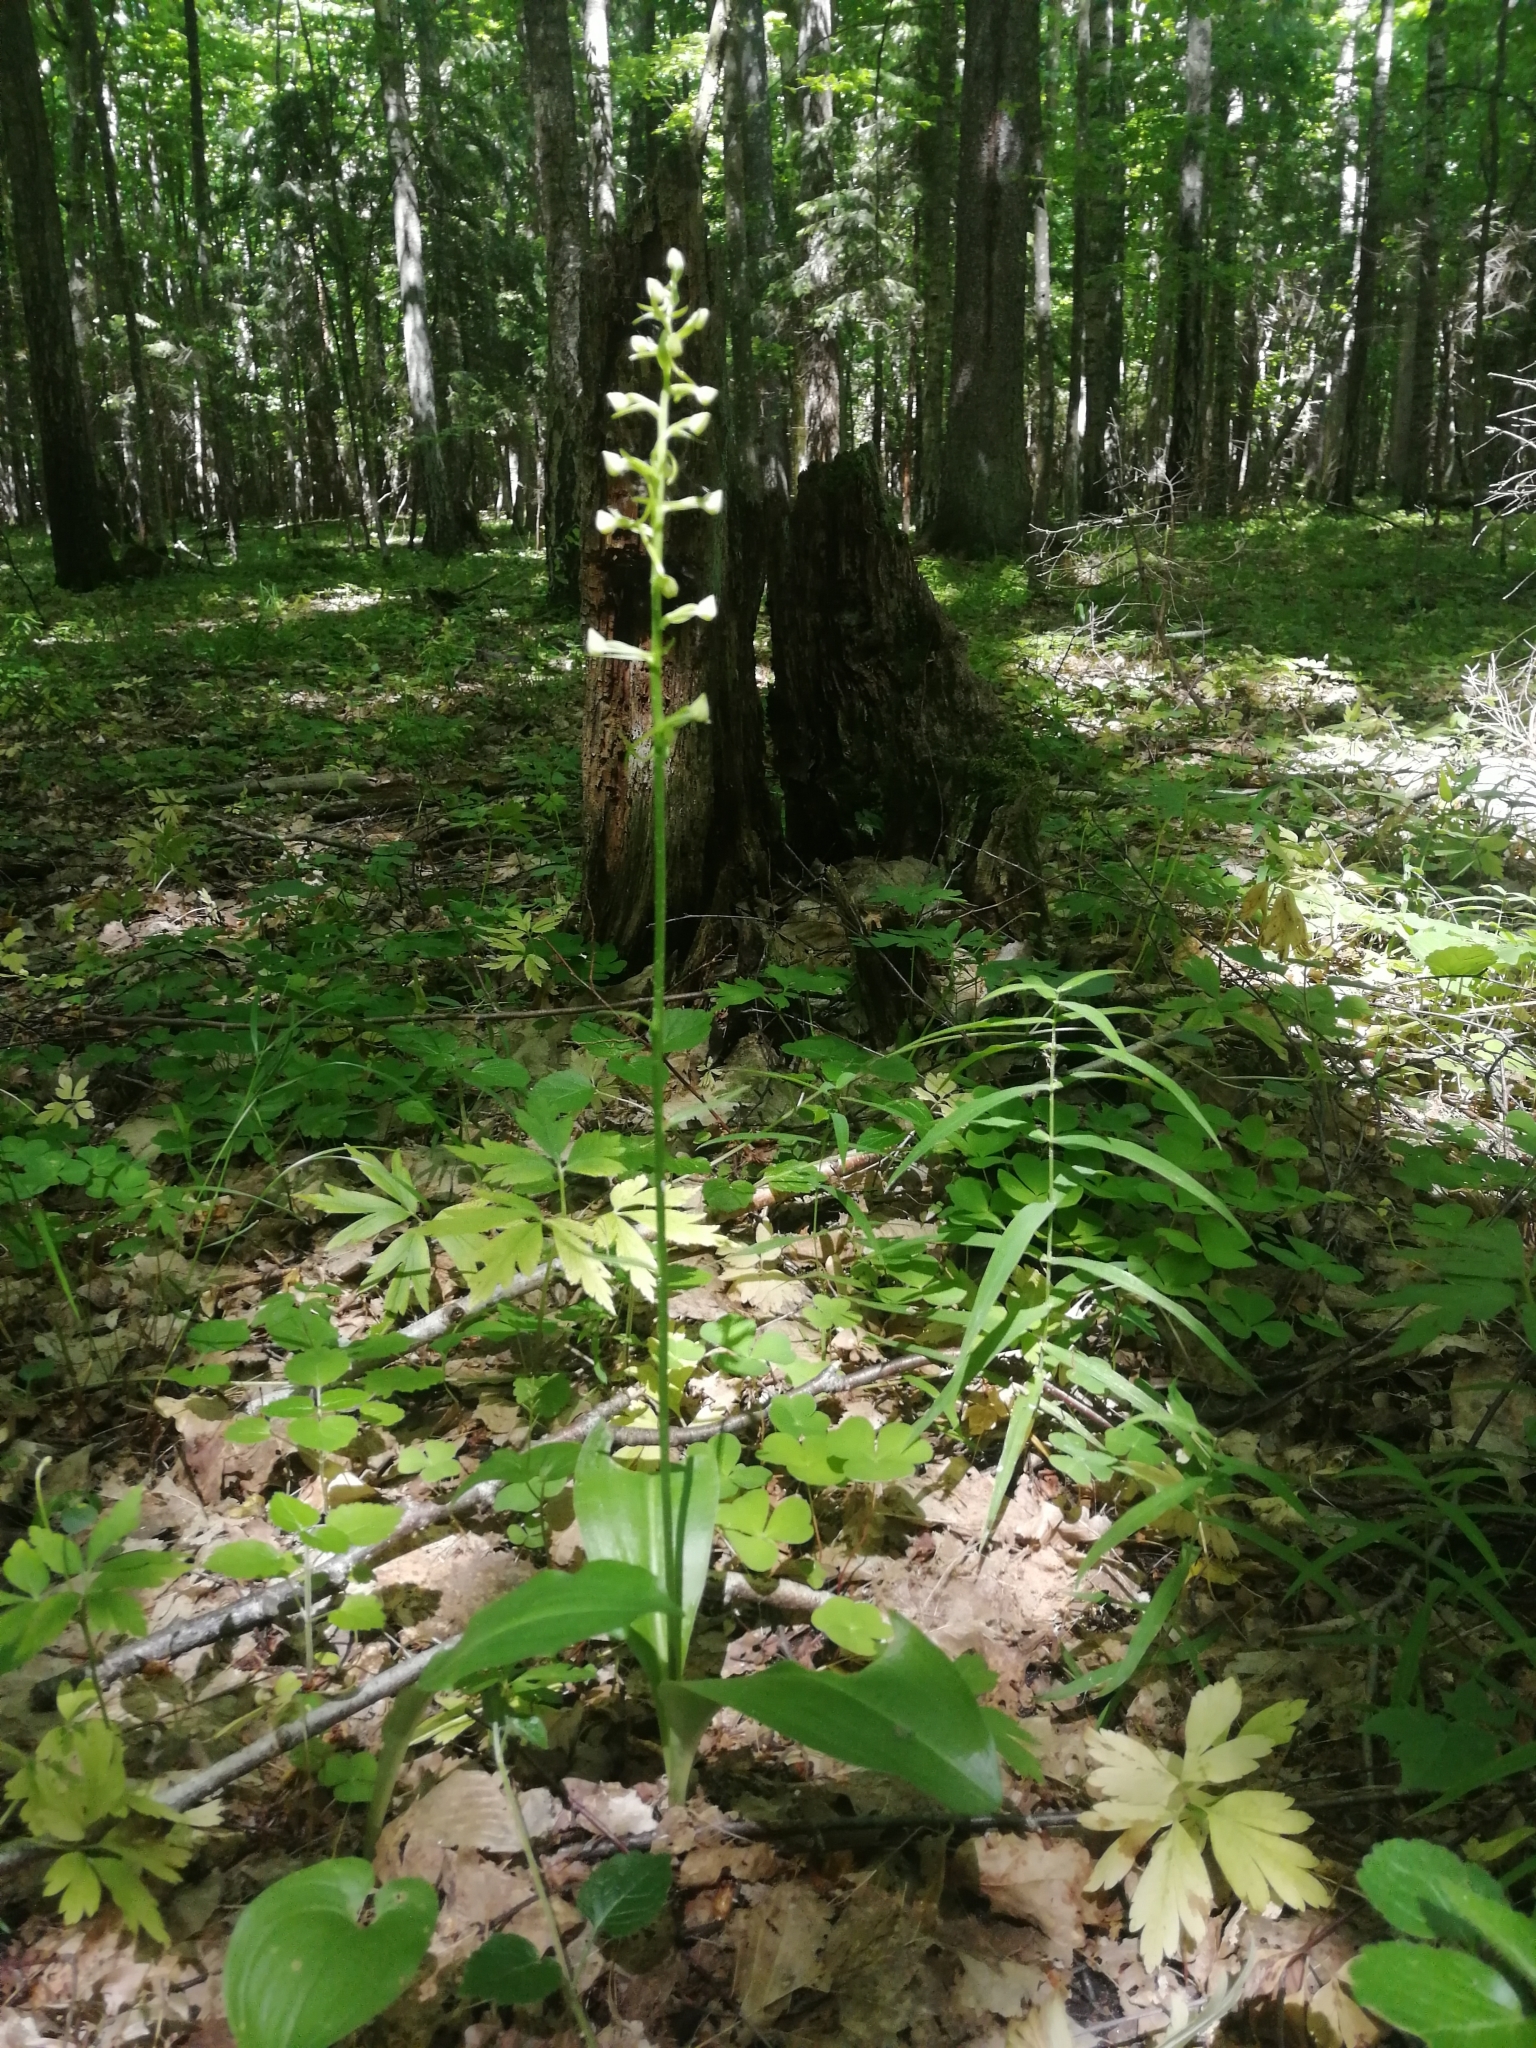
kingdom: Plantae
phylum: Tracheophyta
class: Liliopsida
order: Asparagales
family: Orchidaceae
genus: Platanthera
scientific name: Platanthera chlorantha
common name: Greater butterfly-orchid
